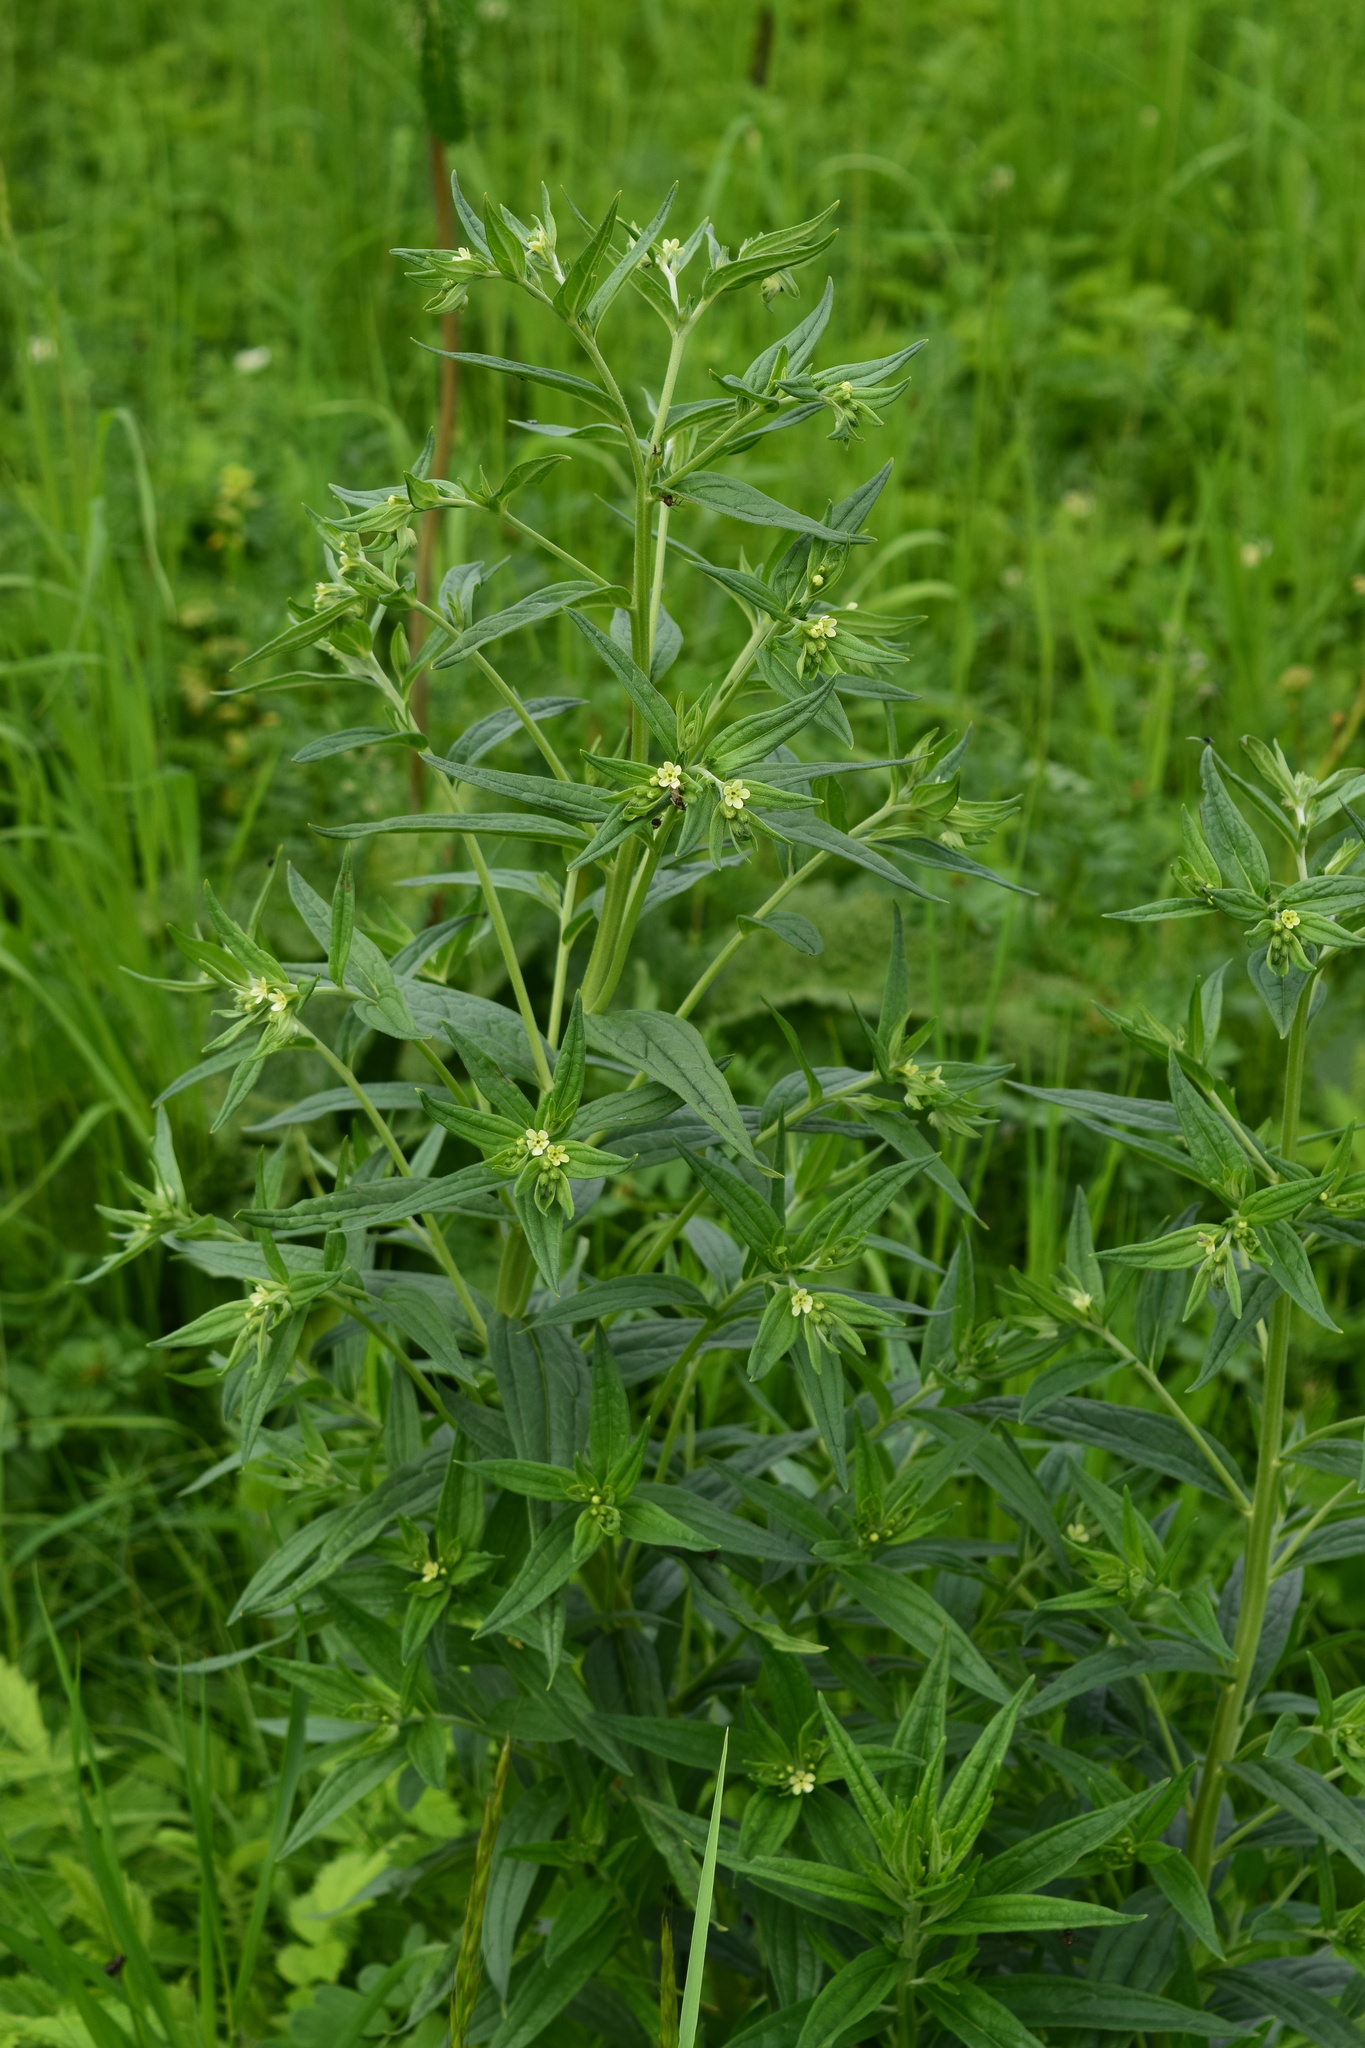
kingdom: Plantae
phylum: Tracheophyta
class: Magnoliopsida
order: Boraginales
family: Boraginaceae
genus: Lithospermum
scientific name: Lithospermum officinale
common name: Common gromwell
